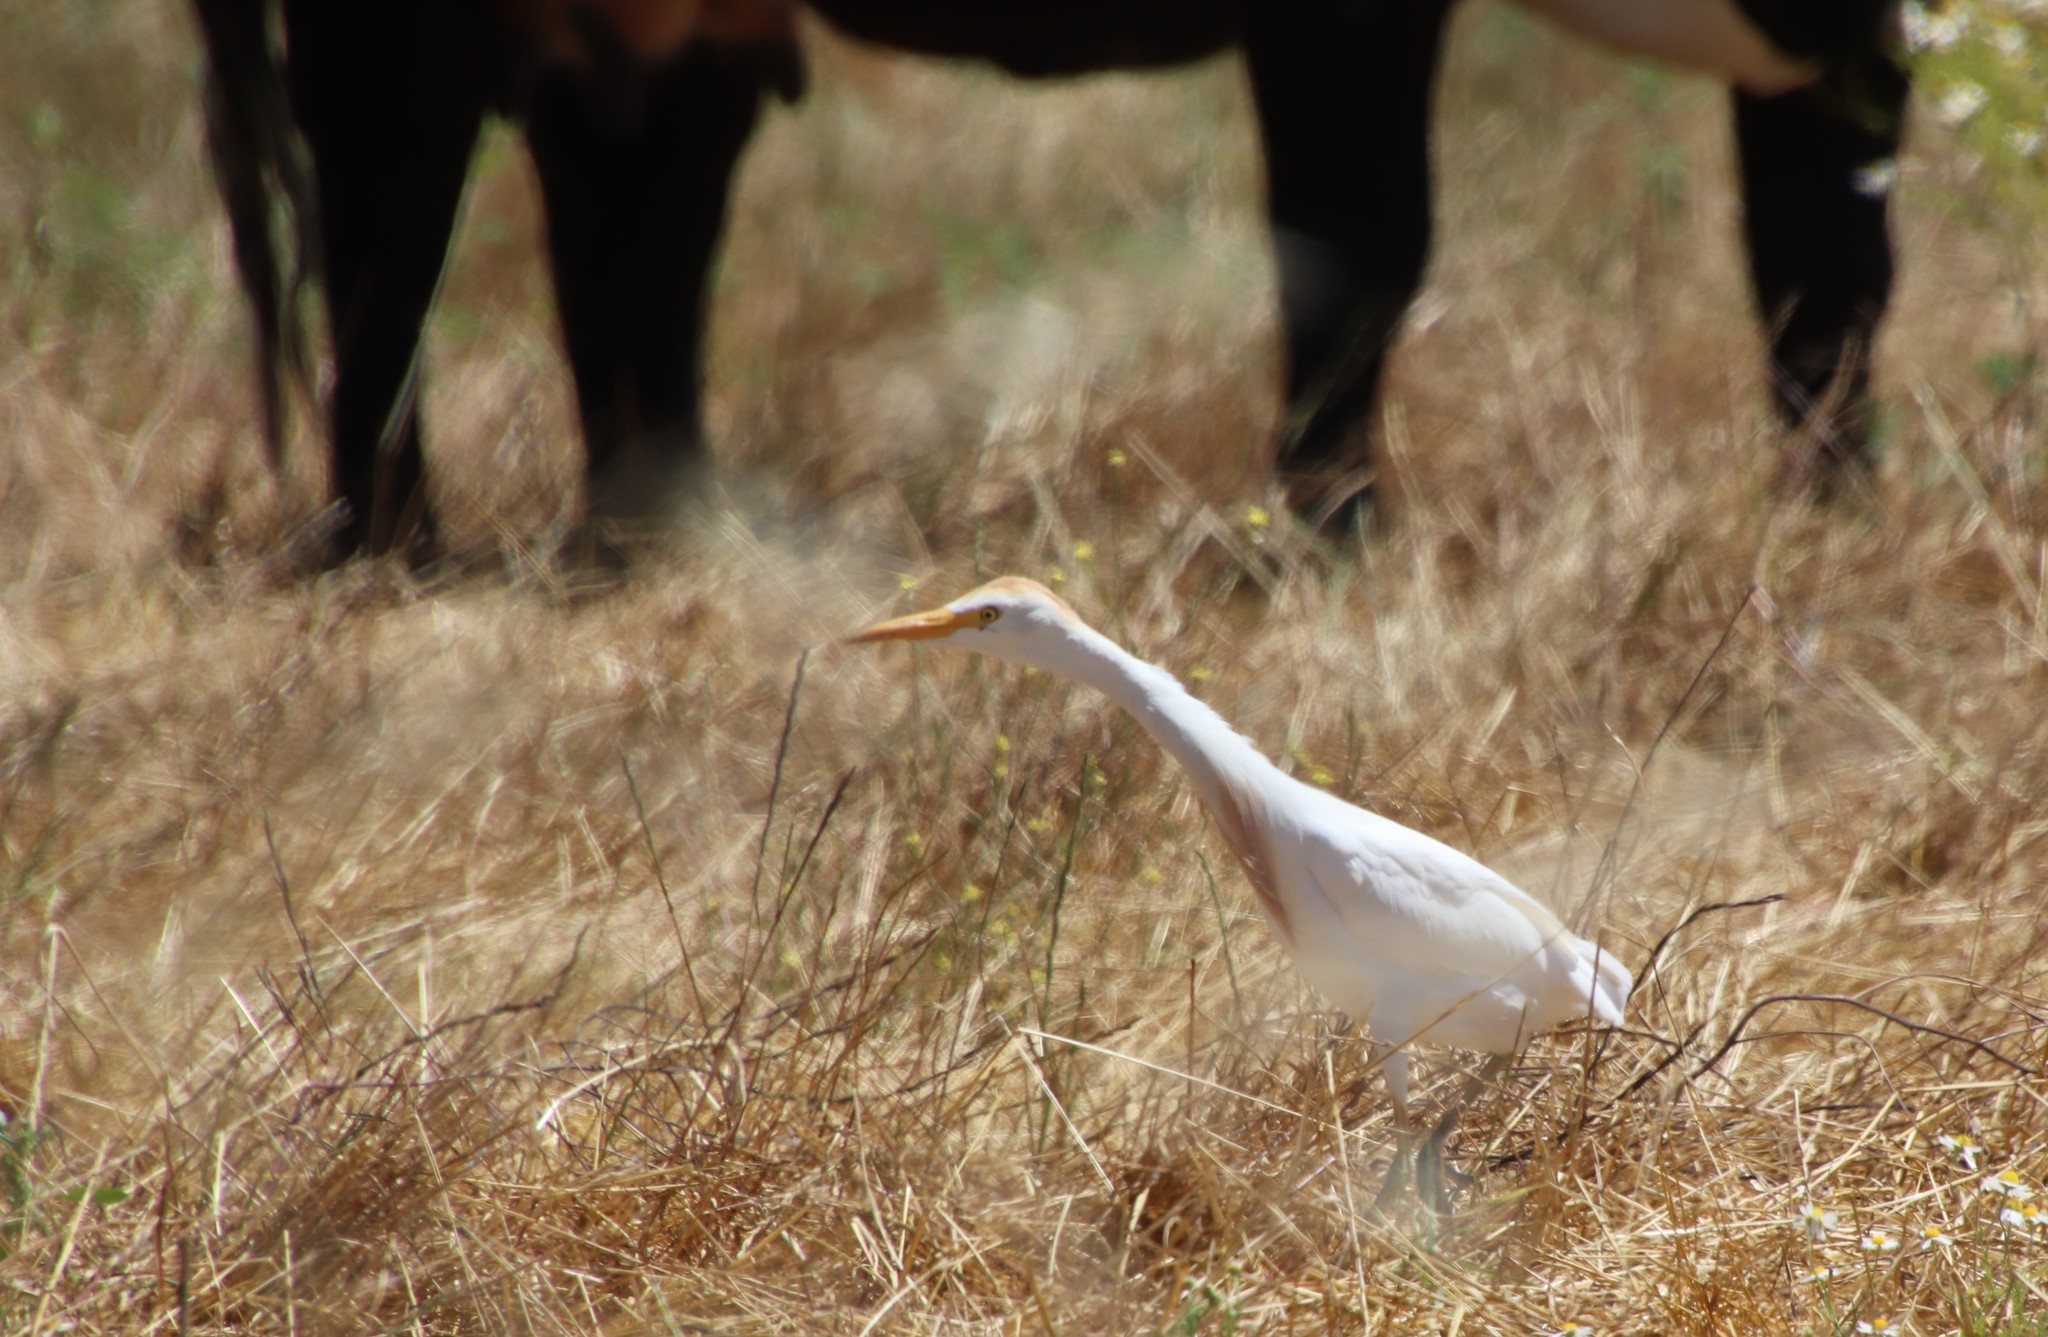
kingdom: Animalia
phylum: Chordata
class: Aves
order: Pelecaniformes
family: Ardeidae
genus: Bubulcus
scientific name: Bubulcus ibis
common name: Cattle egret
